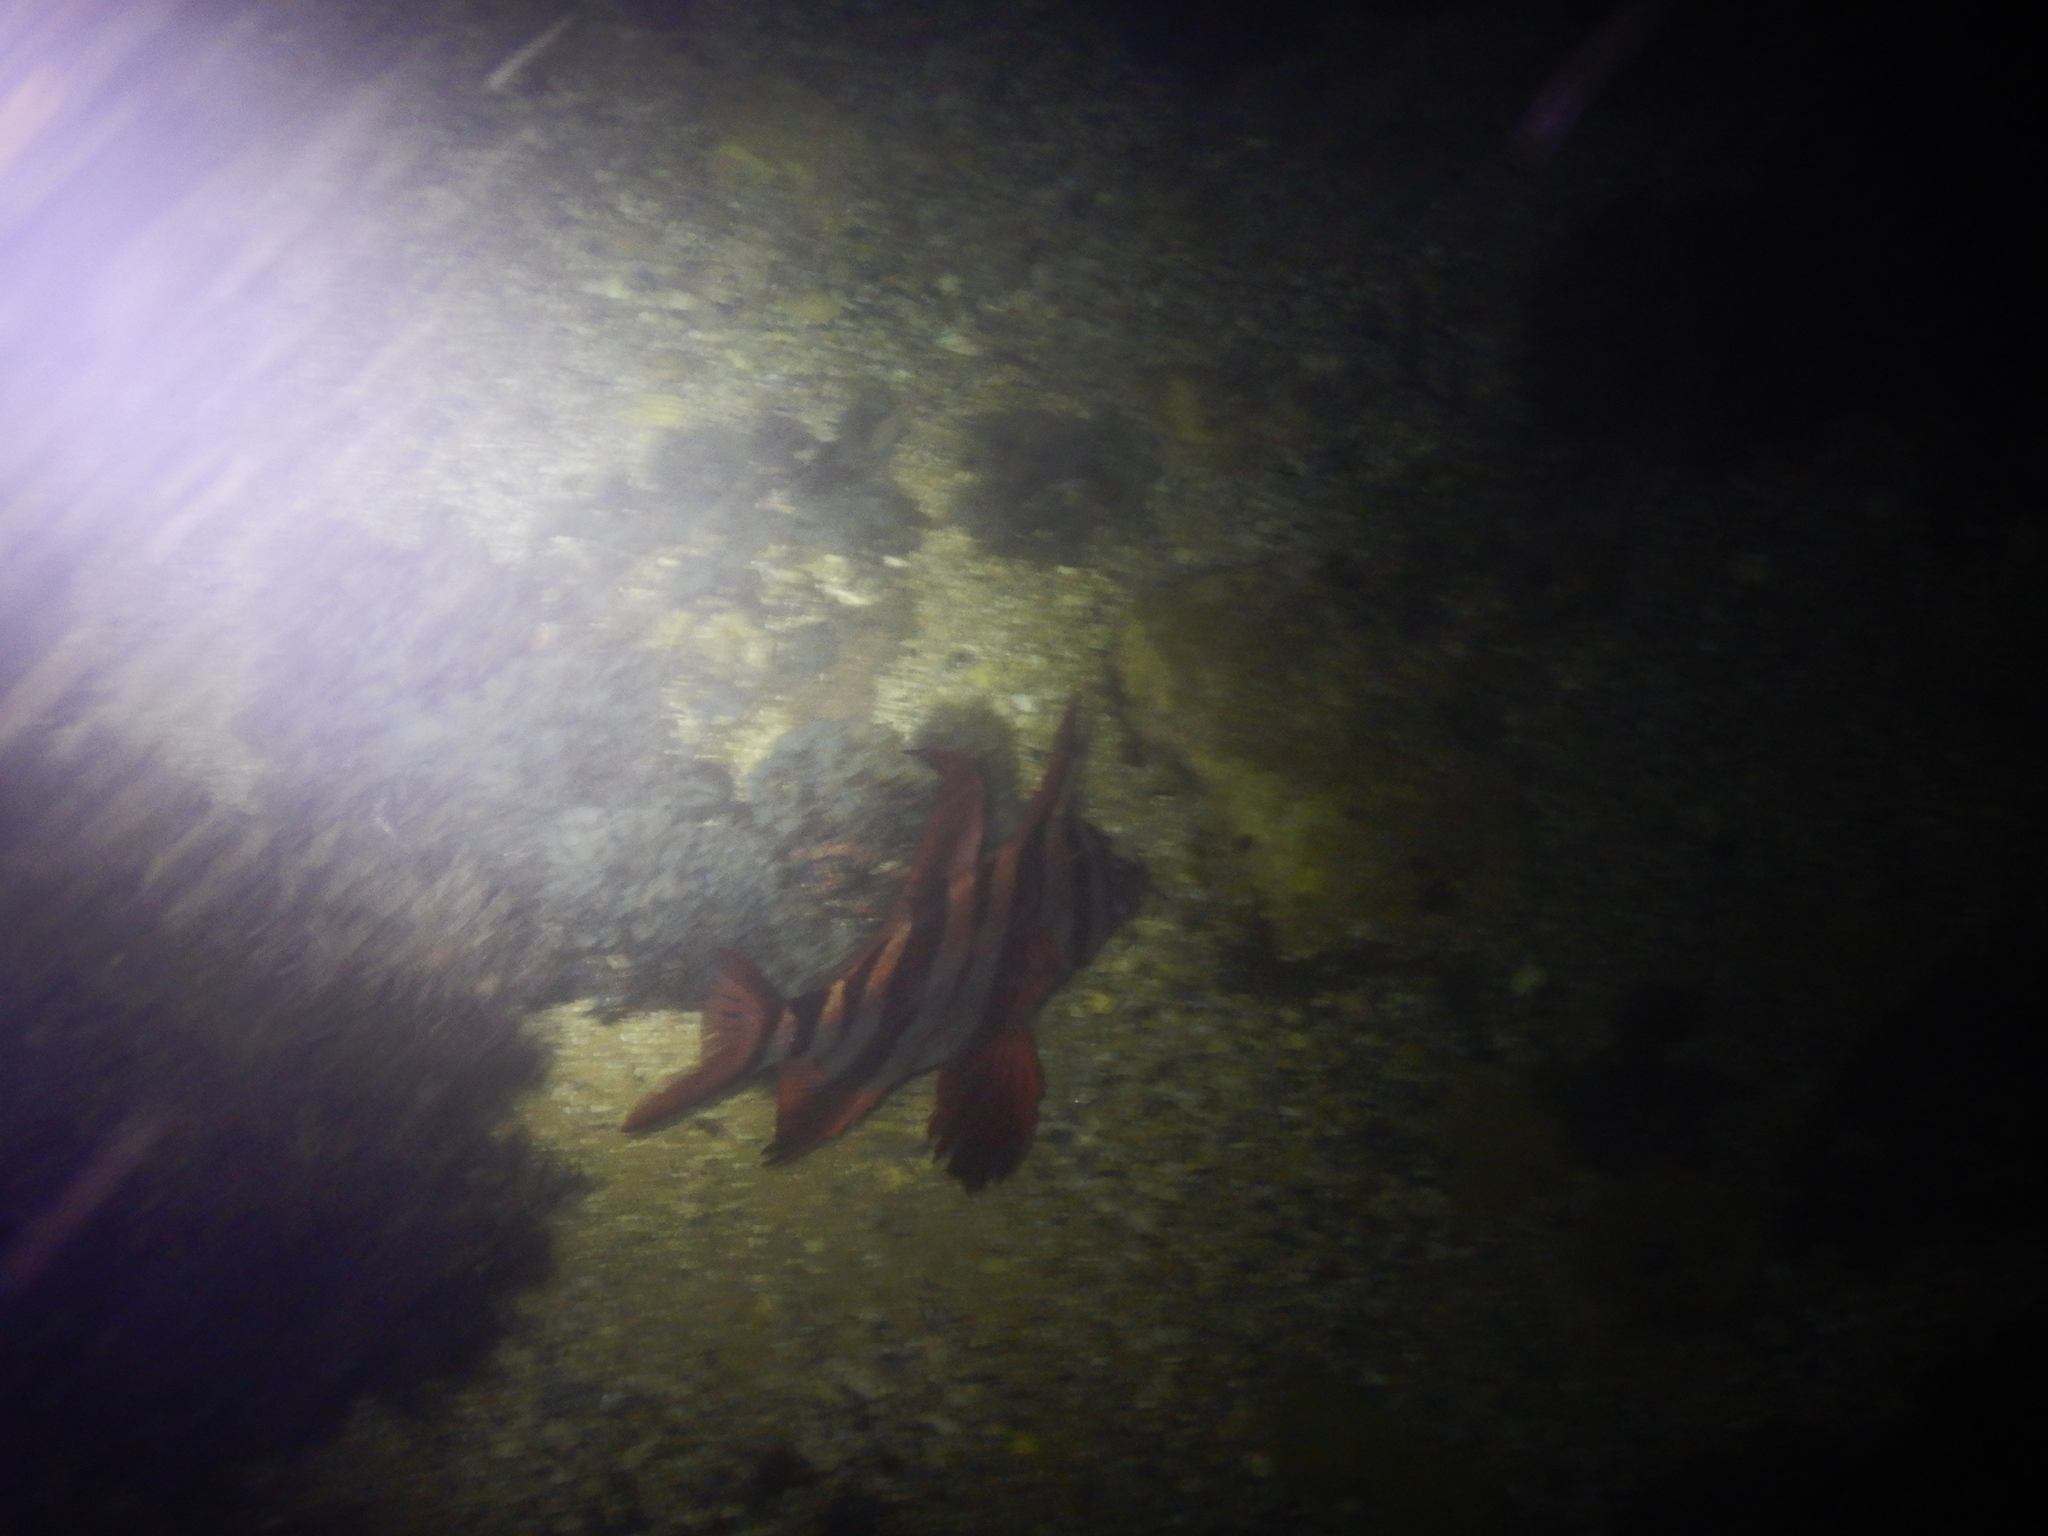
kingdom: Animalia
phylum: Chordata
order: Perciformes
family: Enoplosidae
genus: Enoplosus
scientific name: Enoplosus armatus
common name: Old wife
